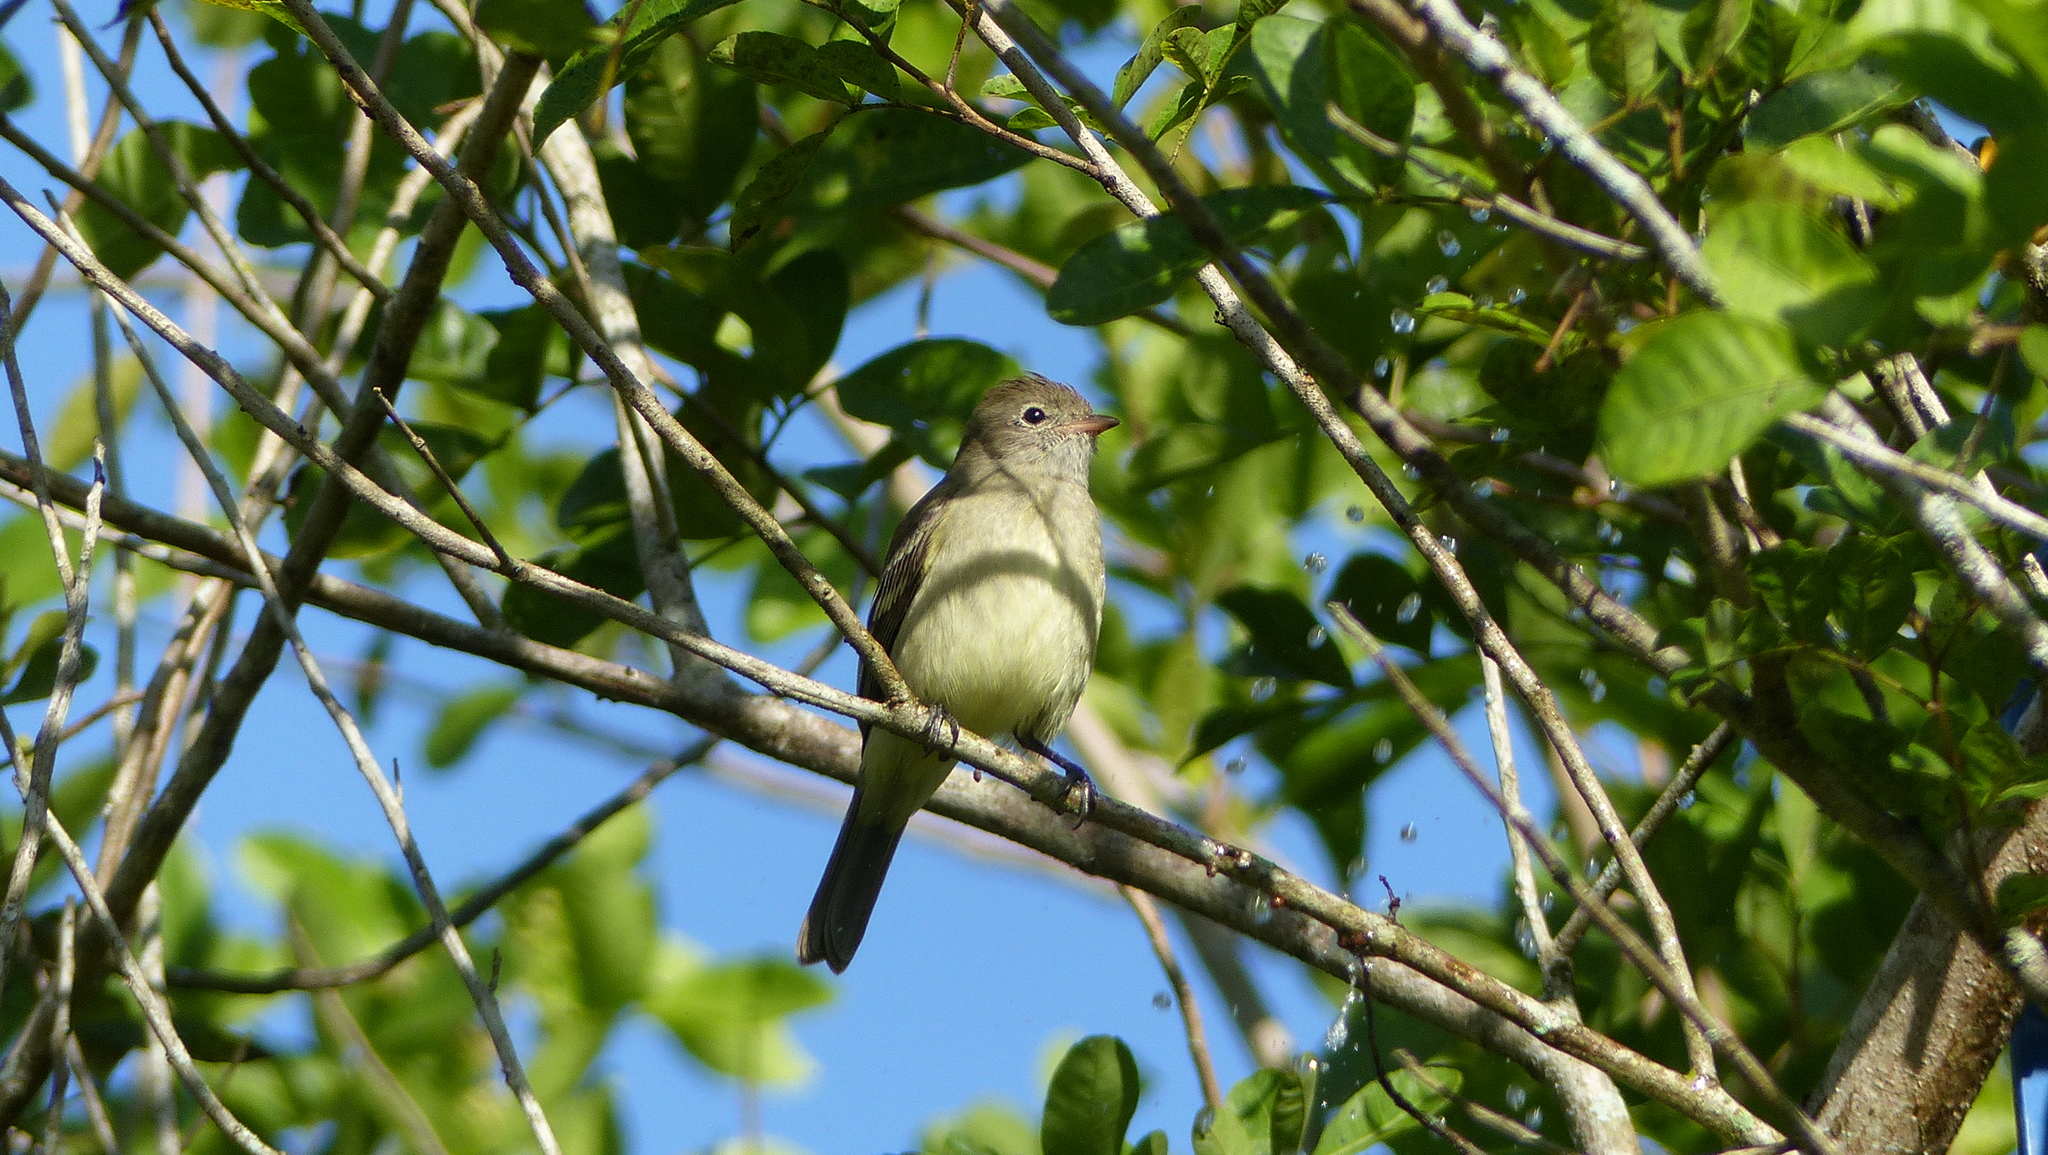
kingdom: Animalia
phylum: Chordata
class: Aves
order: Passeriformes
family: Tyrannidae
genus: Elaenia
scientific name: Elaenia flavogaster
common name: Yellow-bellied elaenia
